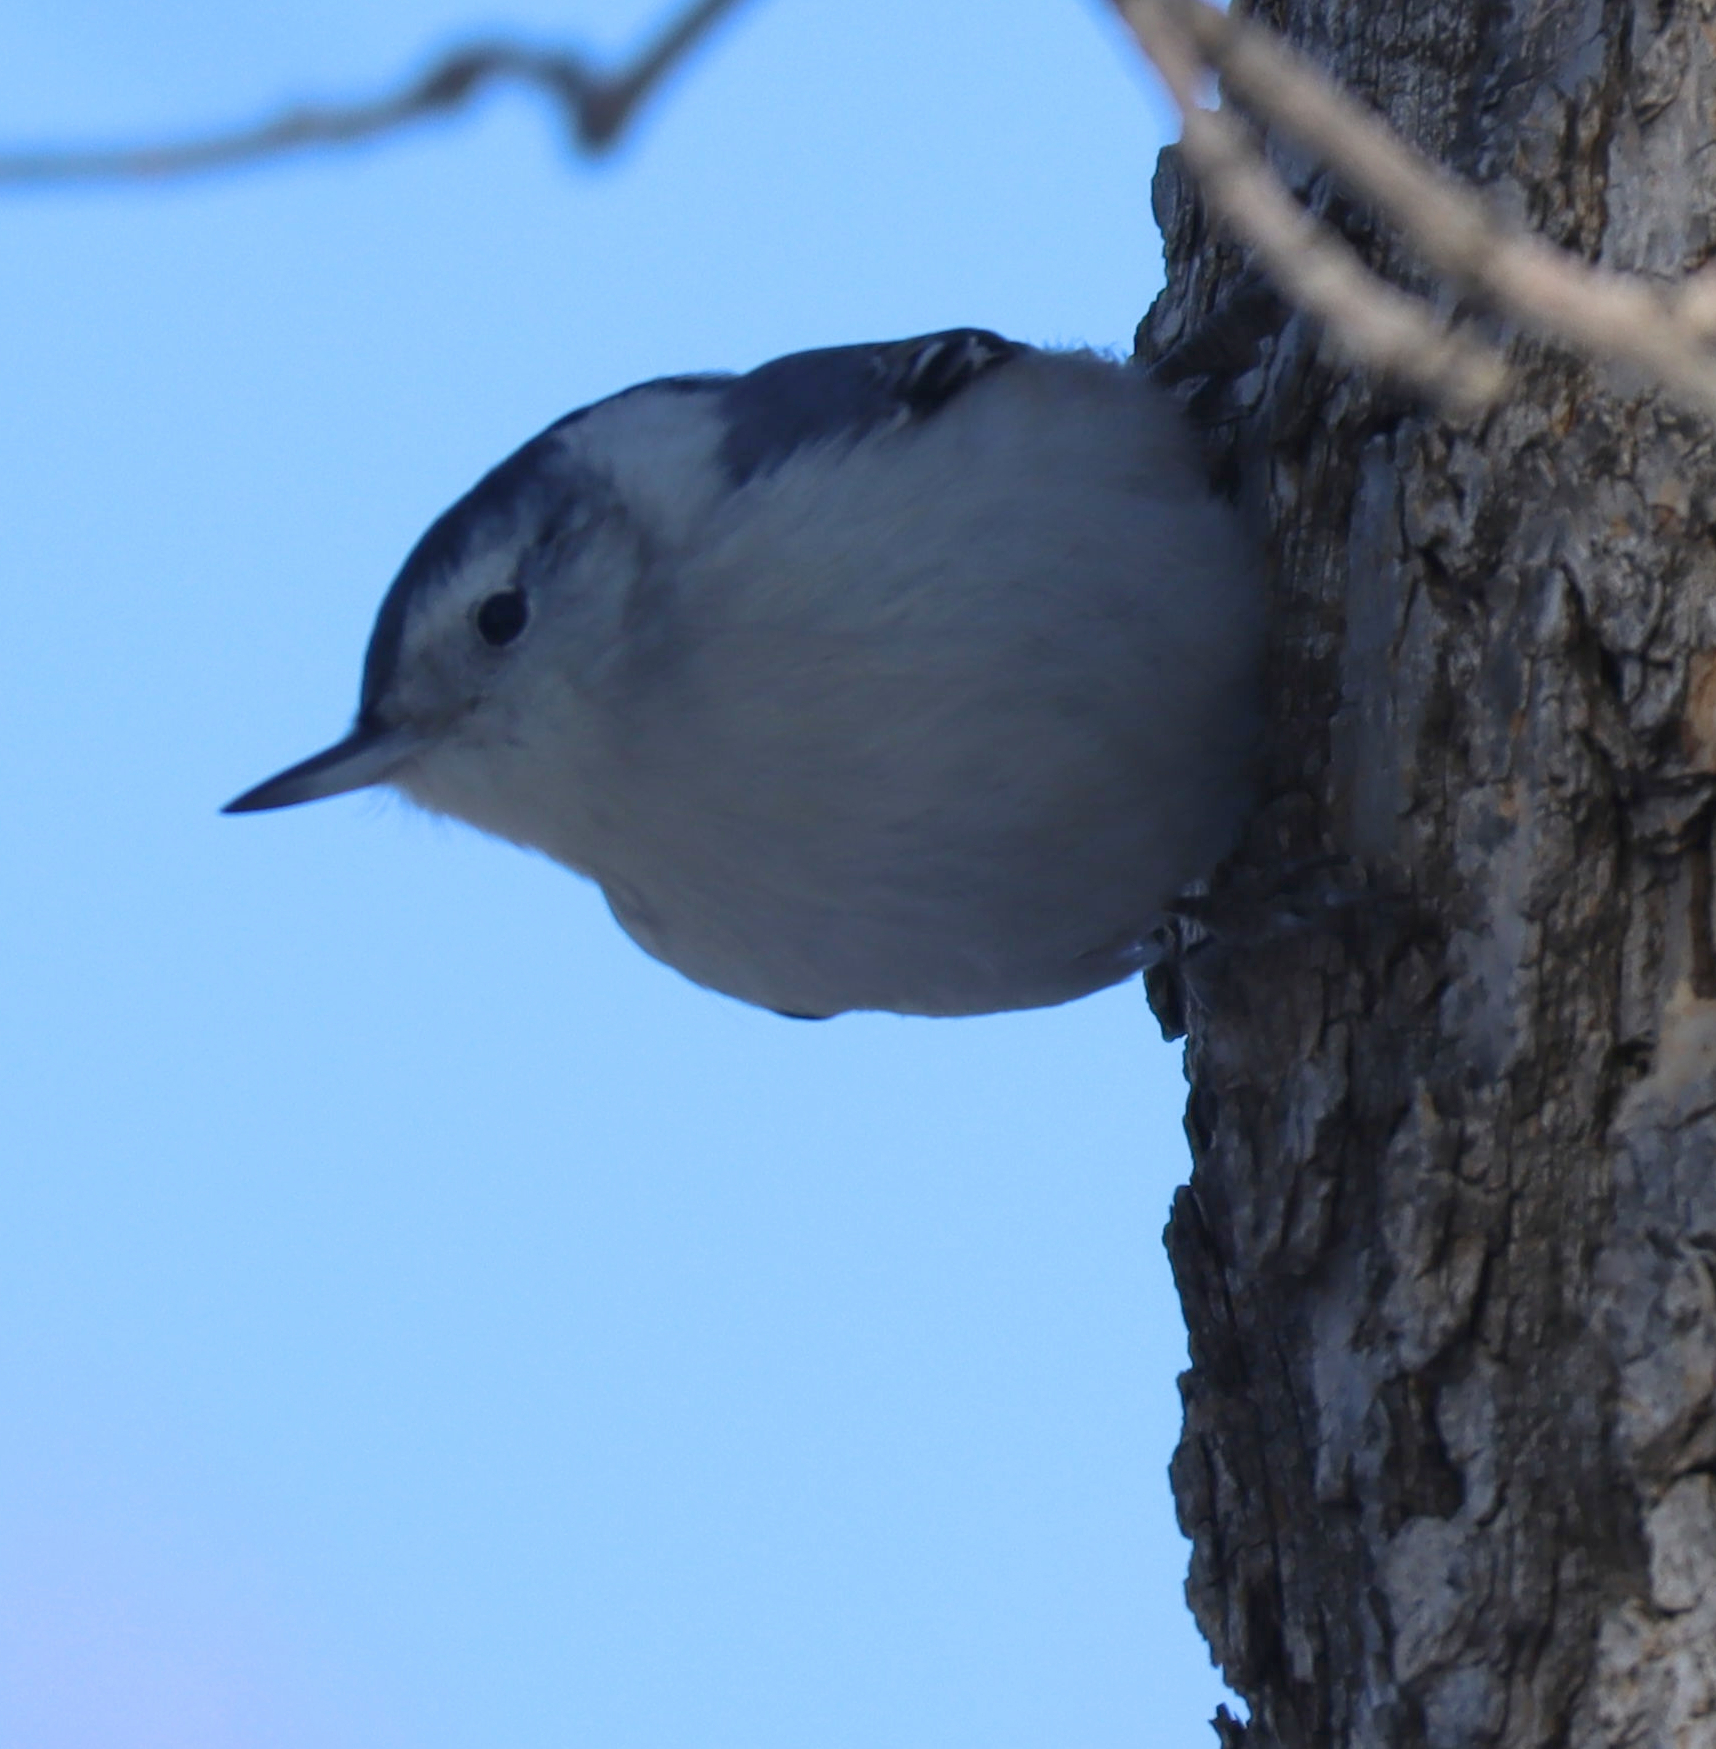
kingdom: Animalia
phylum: Chordata
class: Aves
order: Passeriformes
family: Sittidae
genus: Sitta
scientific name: Sitta carolinensis
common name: White-breasted nuthatch
